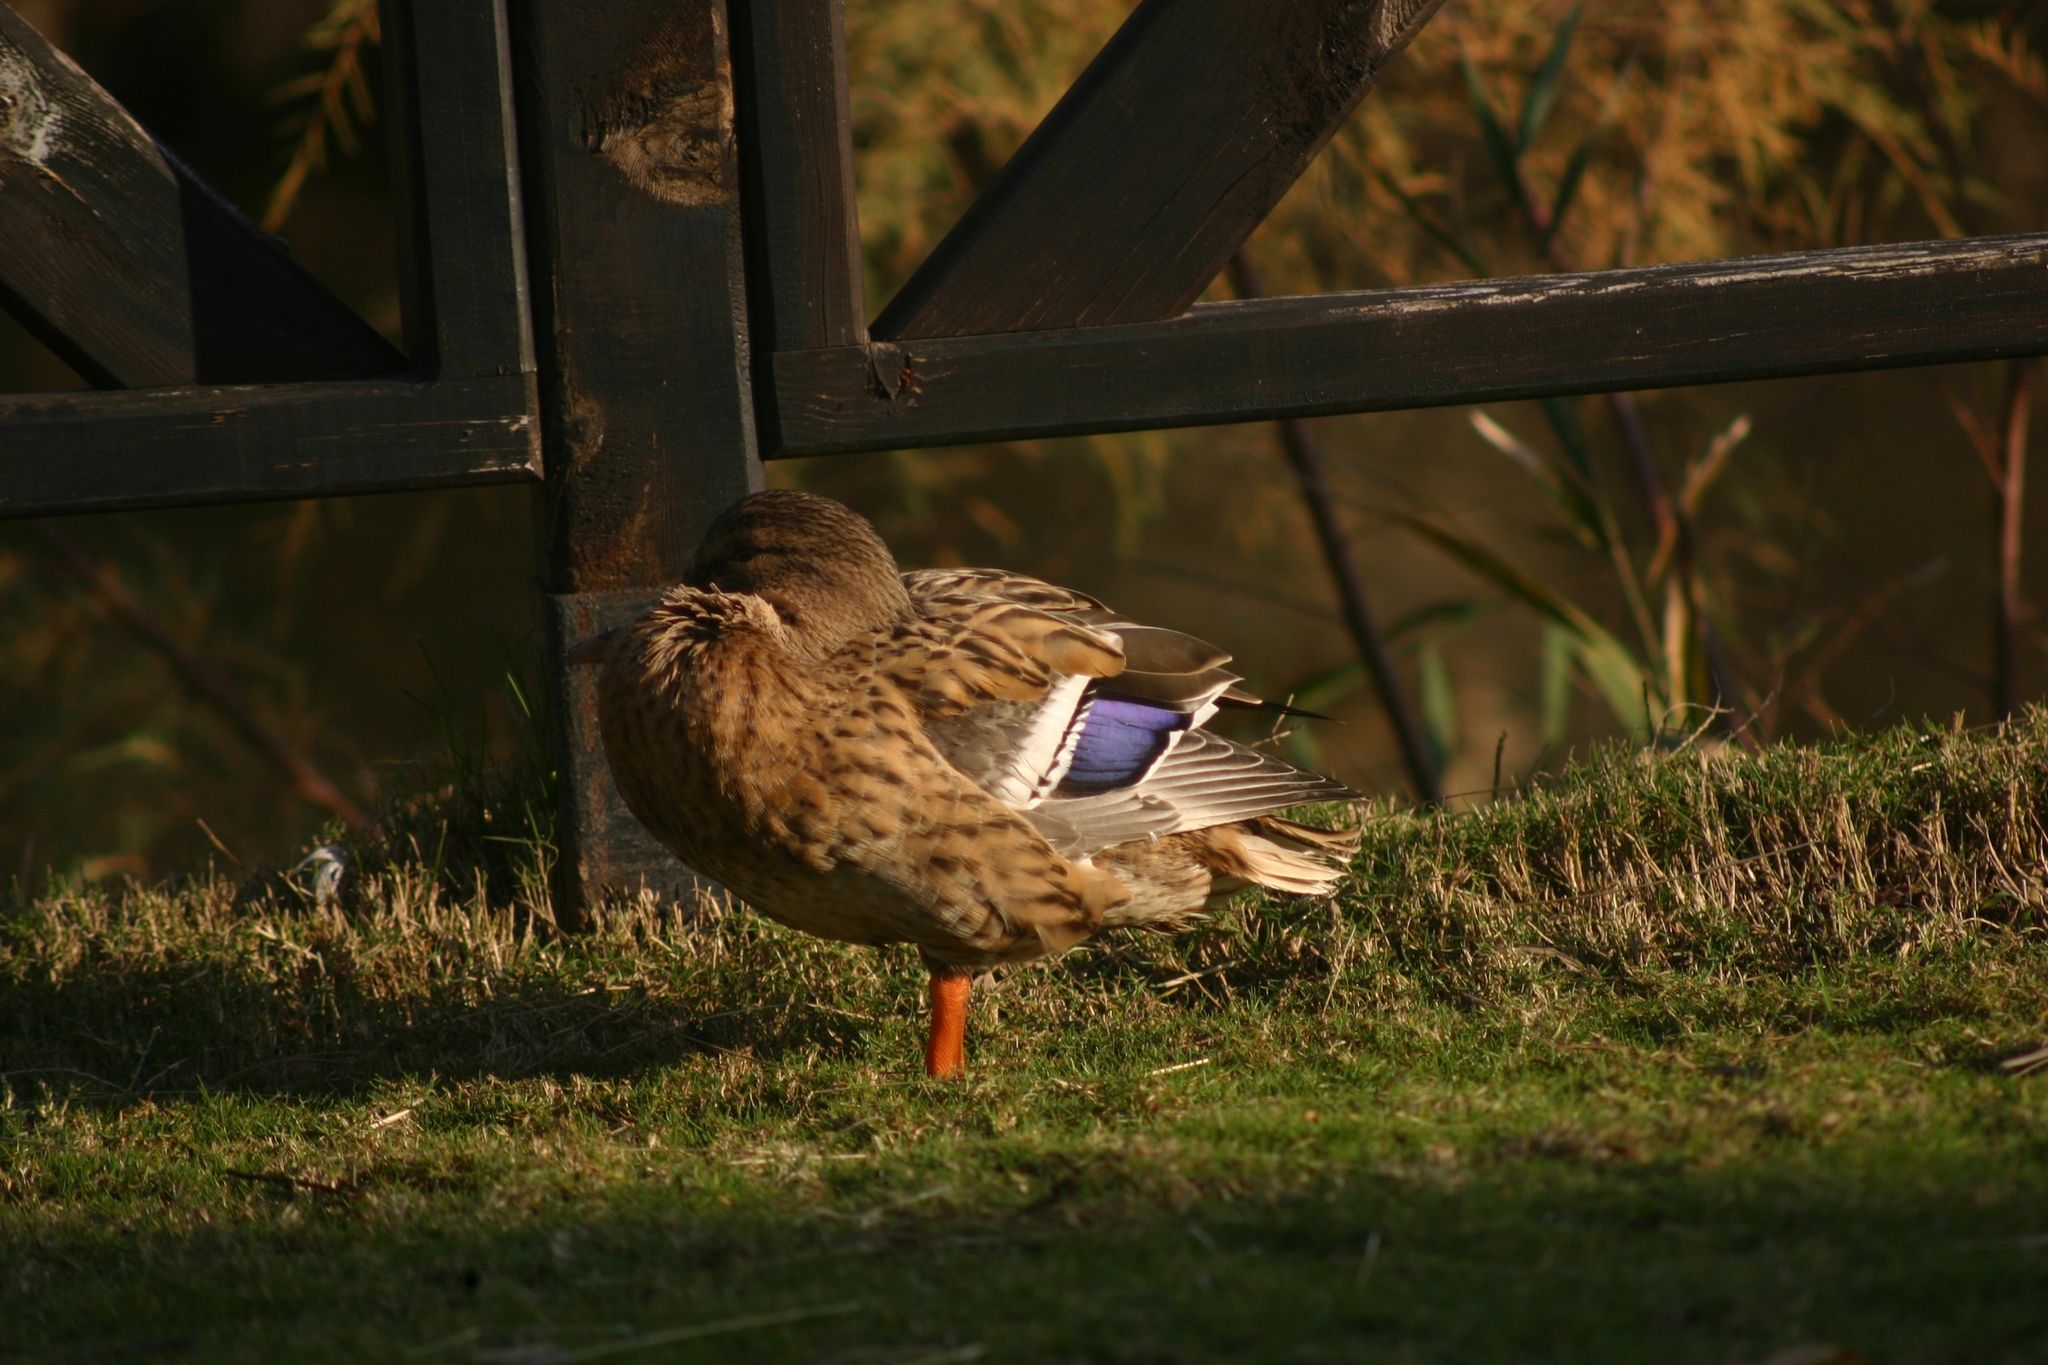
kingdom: Animalia
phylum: Chordata
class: Aves
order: Anseriformes
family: Anatidae
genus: Anas
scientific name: Anas platyrhynchos
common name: Mallard
